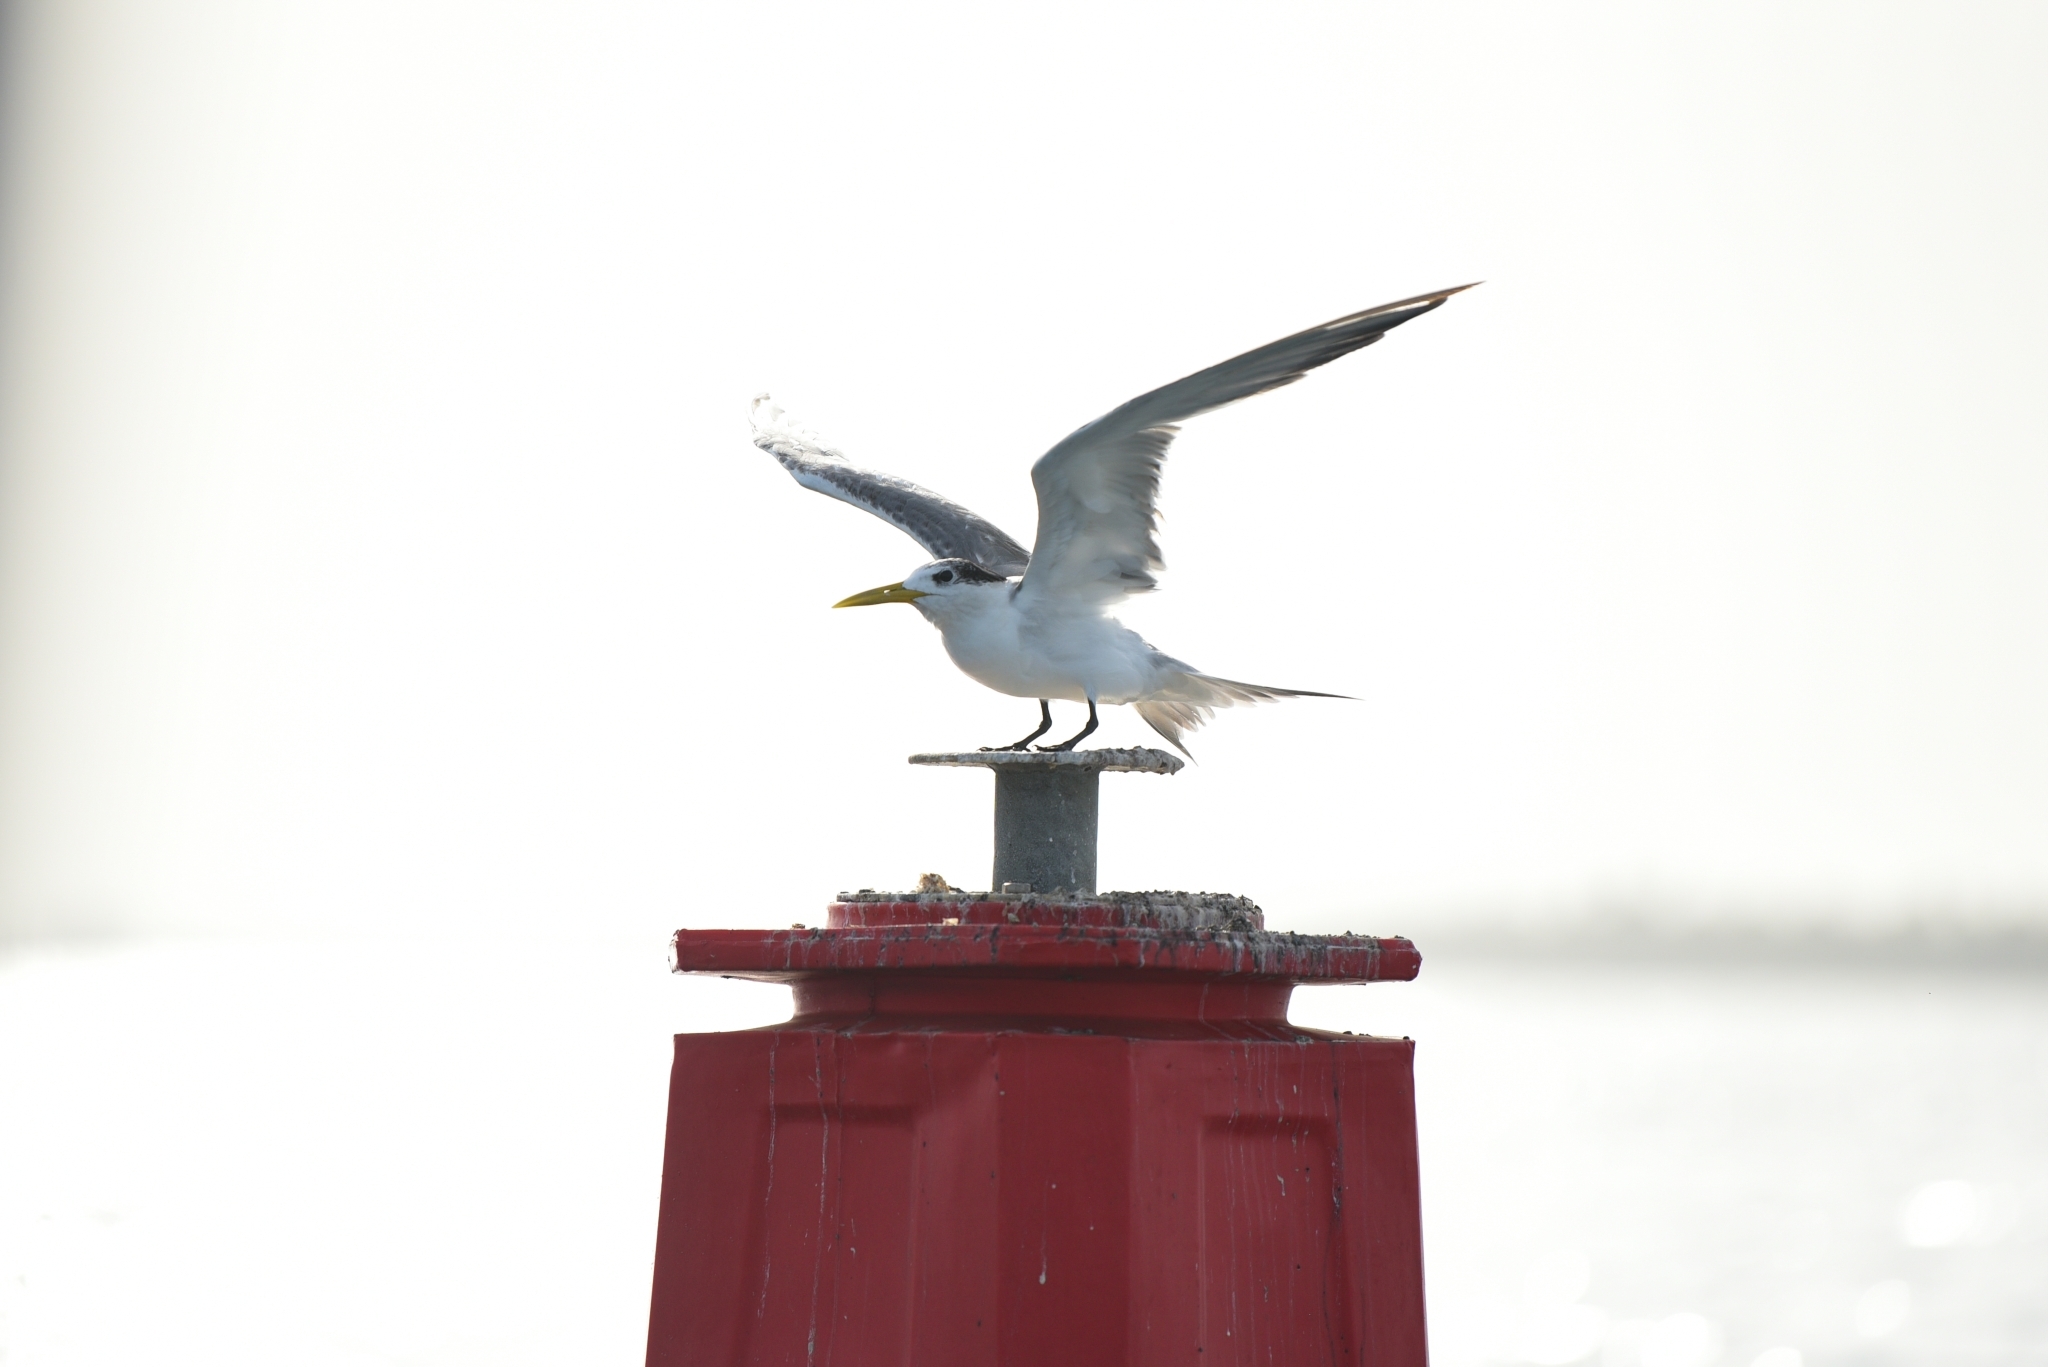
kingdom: Animalia
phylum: Chordata
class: Aves
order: Charadriiformes
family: Laridae
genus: Thalasseus
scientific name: Thalasseus bergii
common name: Greater crested tern
